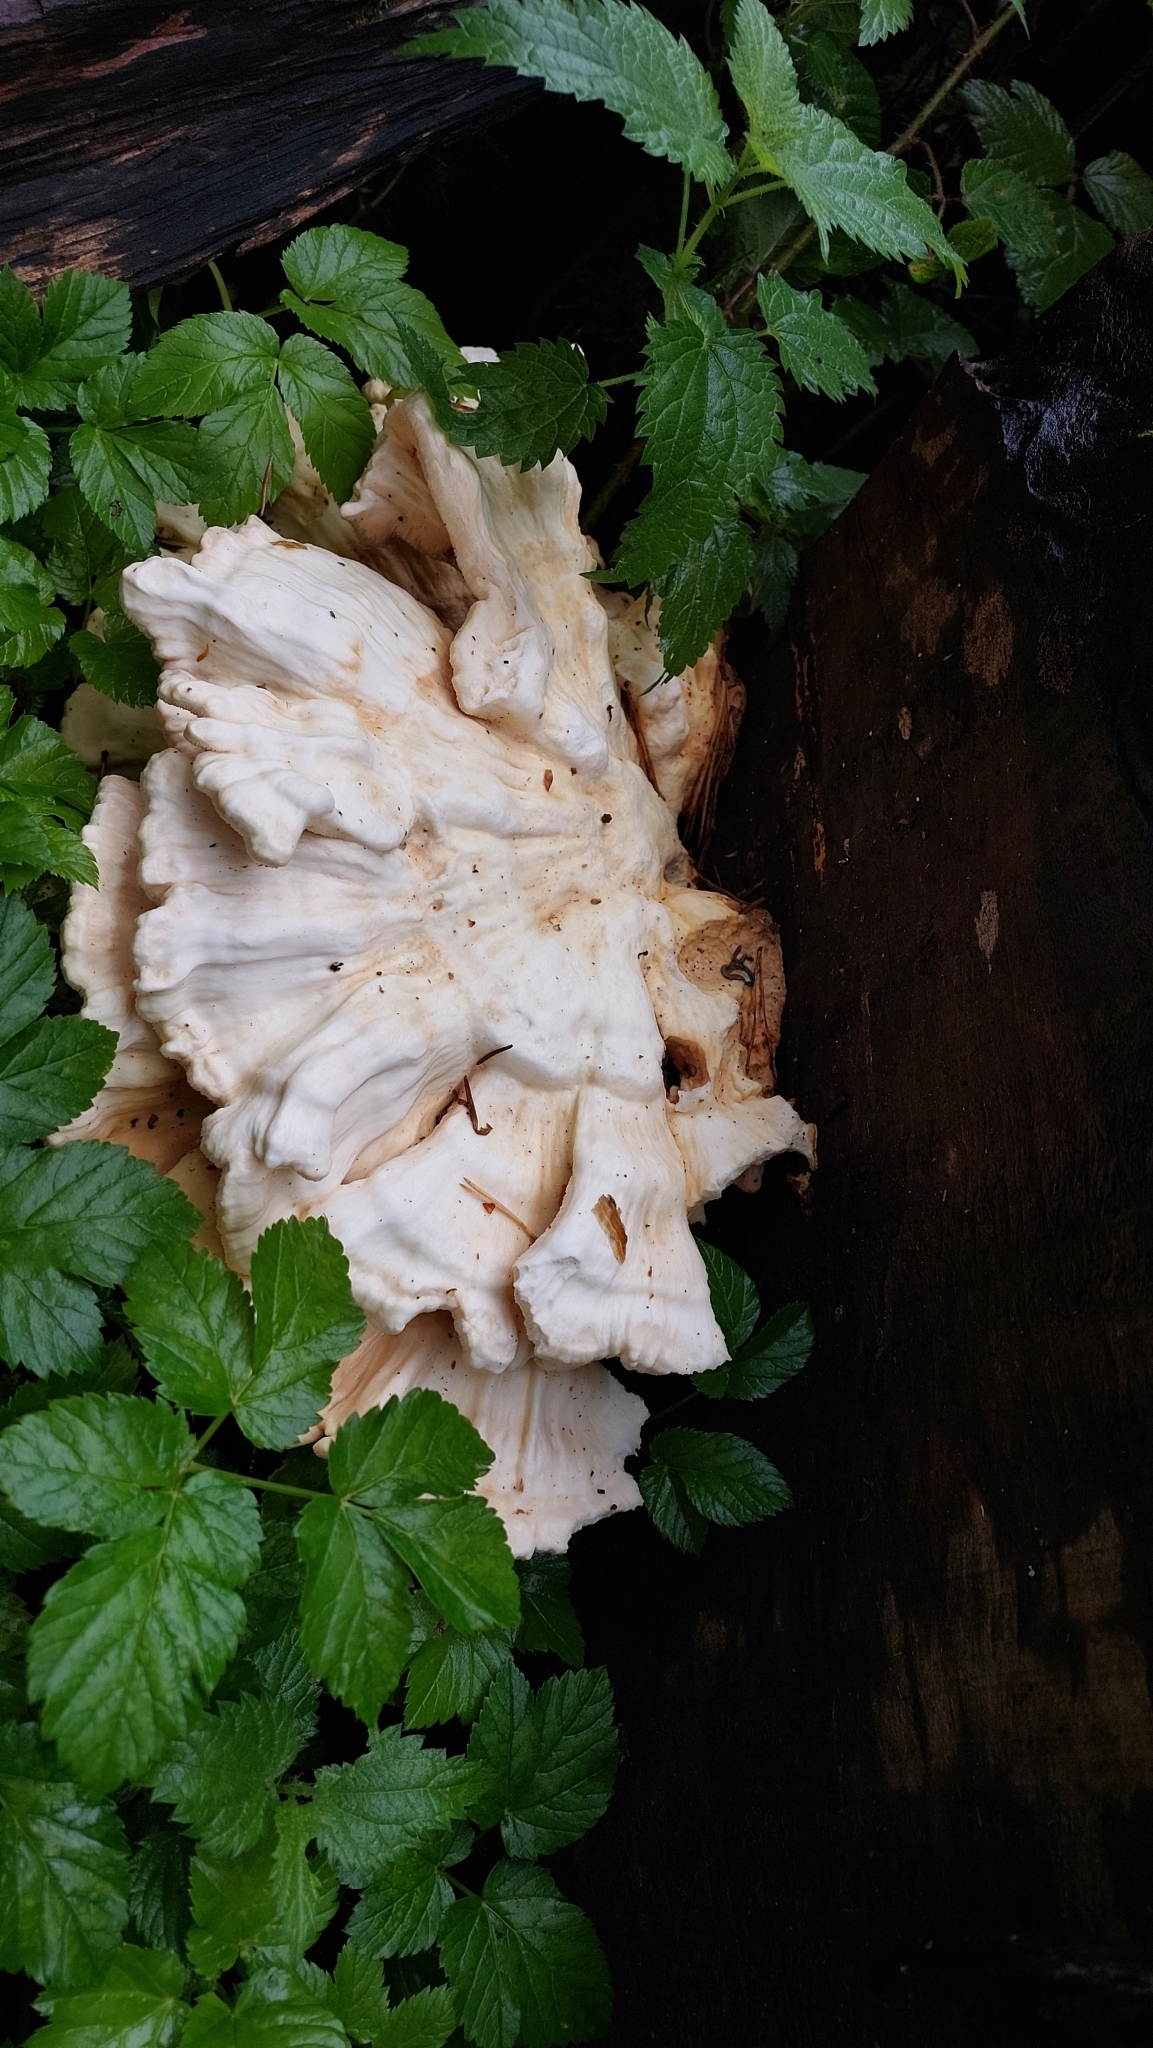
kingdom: Fungi
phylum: Basidiomycota
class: Agaricomycetes
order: Polyporales
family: Laetiporaceae
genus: Laetiporus
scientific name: Laetiporus sulphureus
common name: Chicken of the woods
